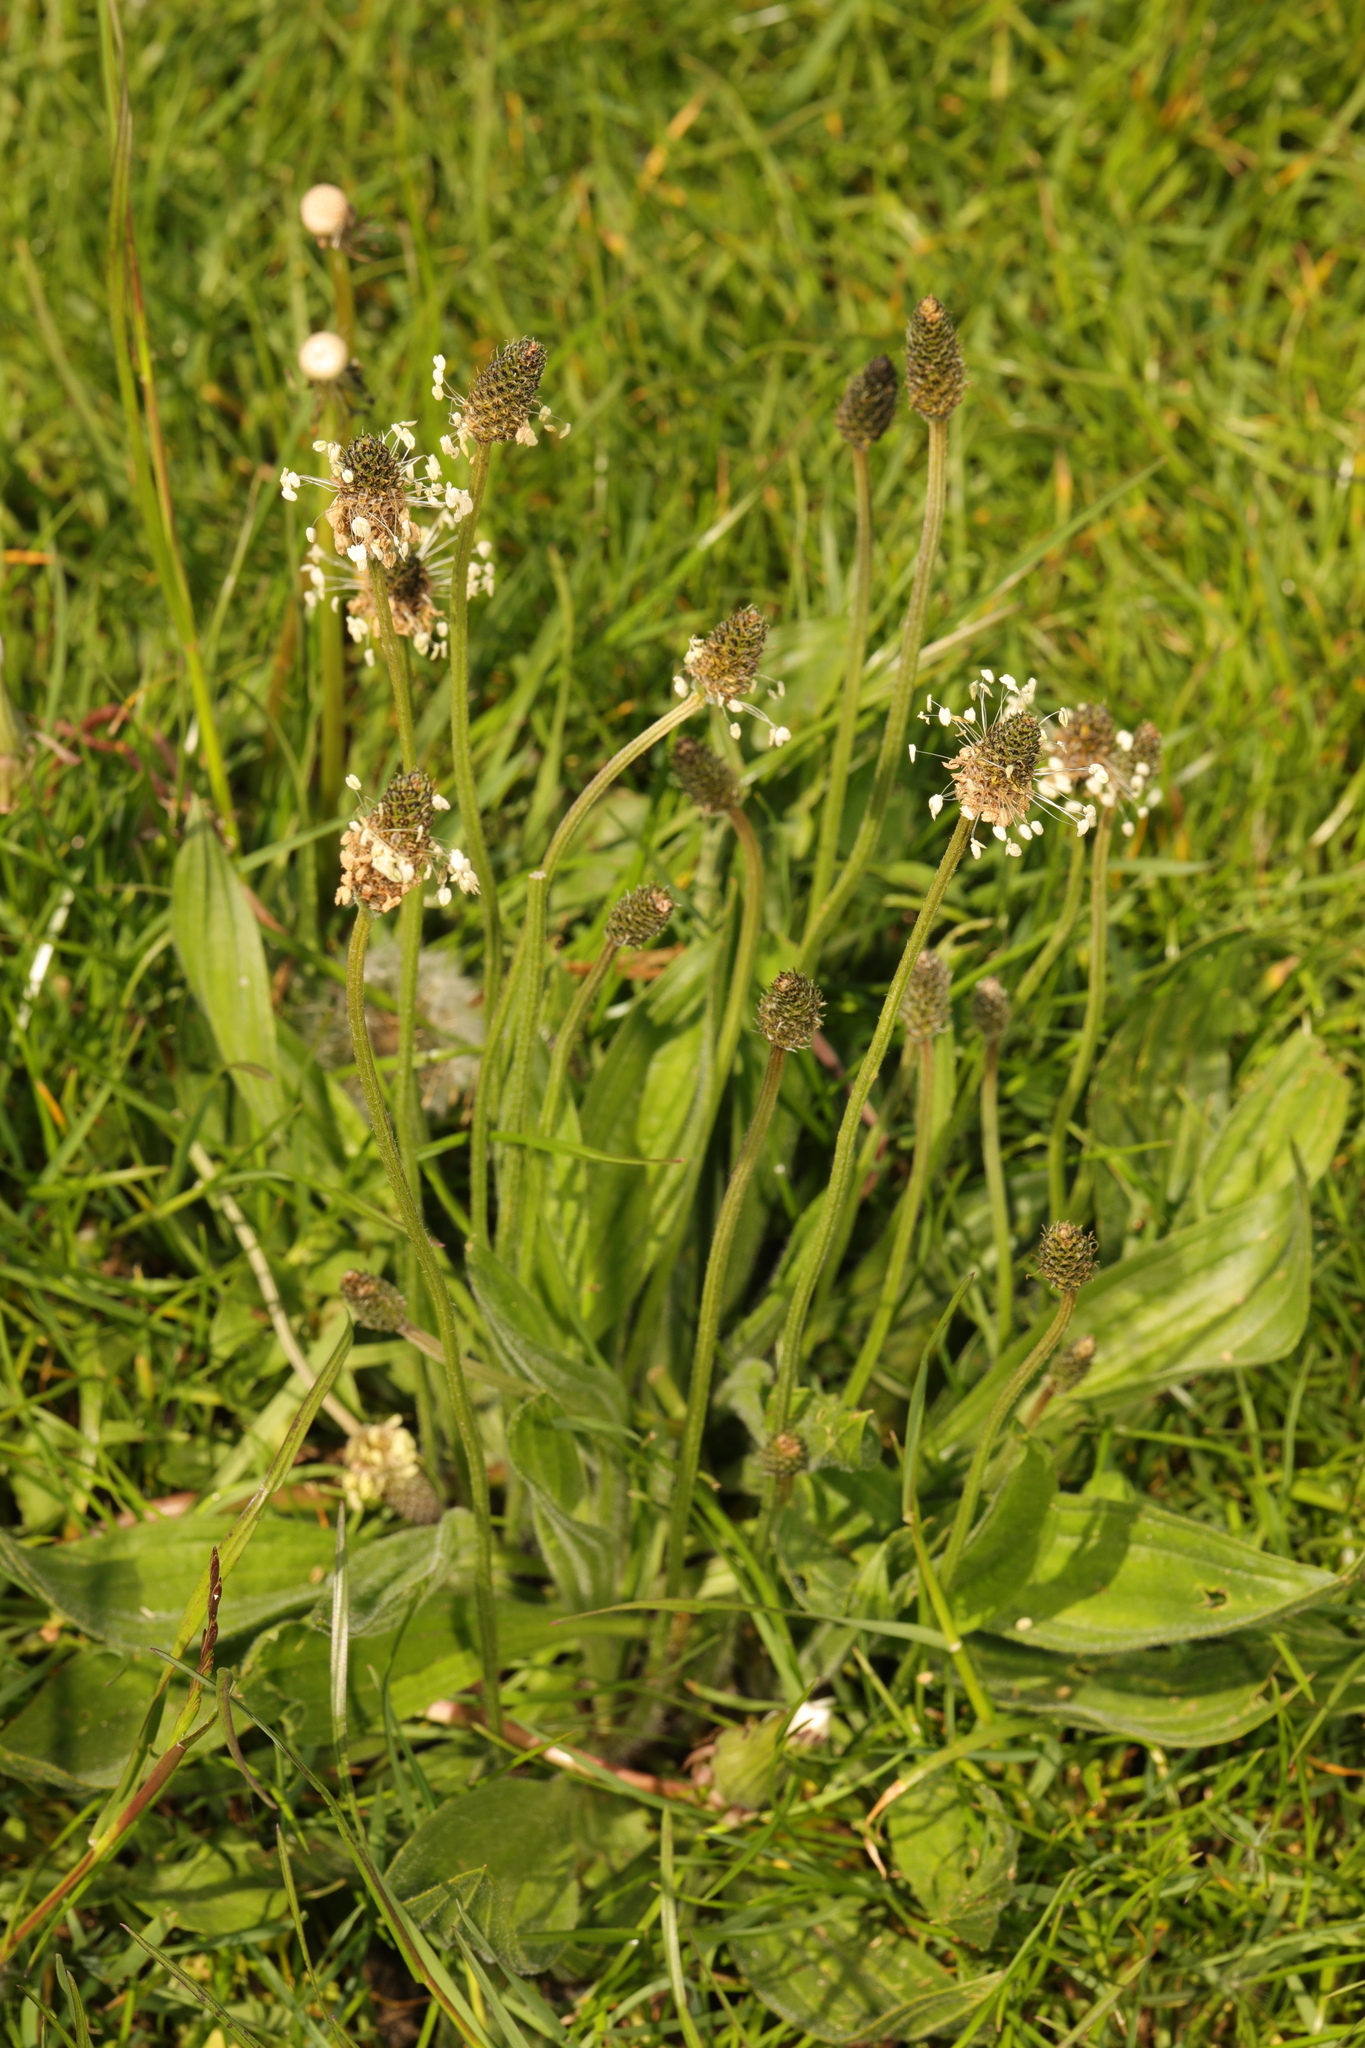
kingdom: Plantae
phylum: Tracheophyta
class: Magnoliopsida
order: Lamiales
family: Plantaginaceae
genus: Plantago
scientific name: Plantago lanceolata
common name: Ribwort plantain
